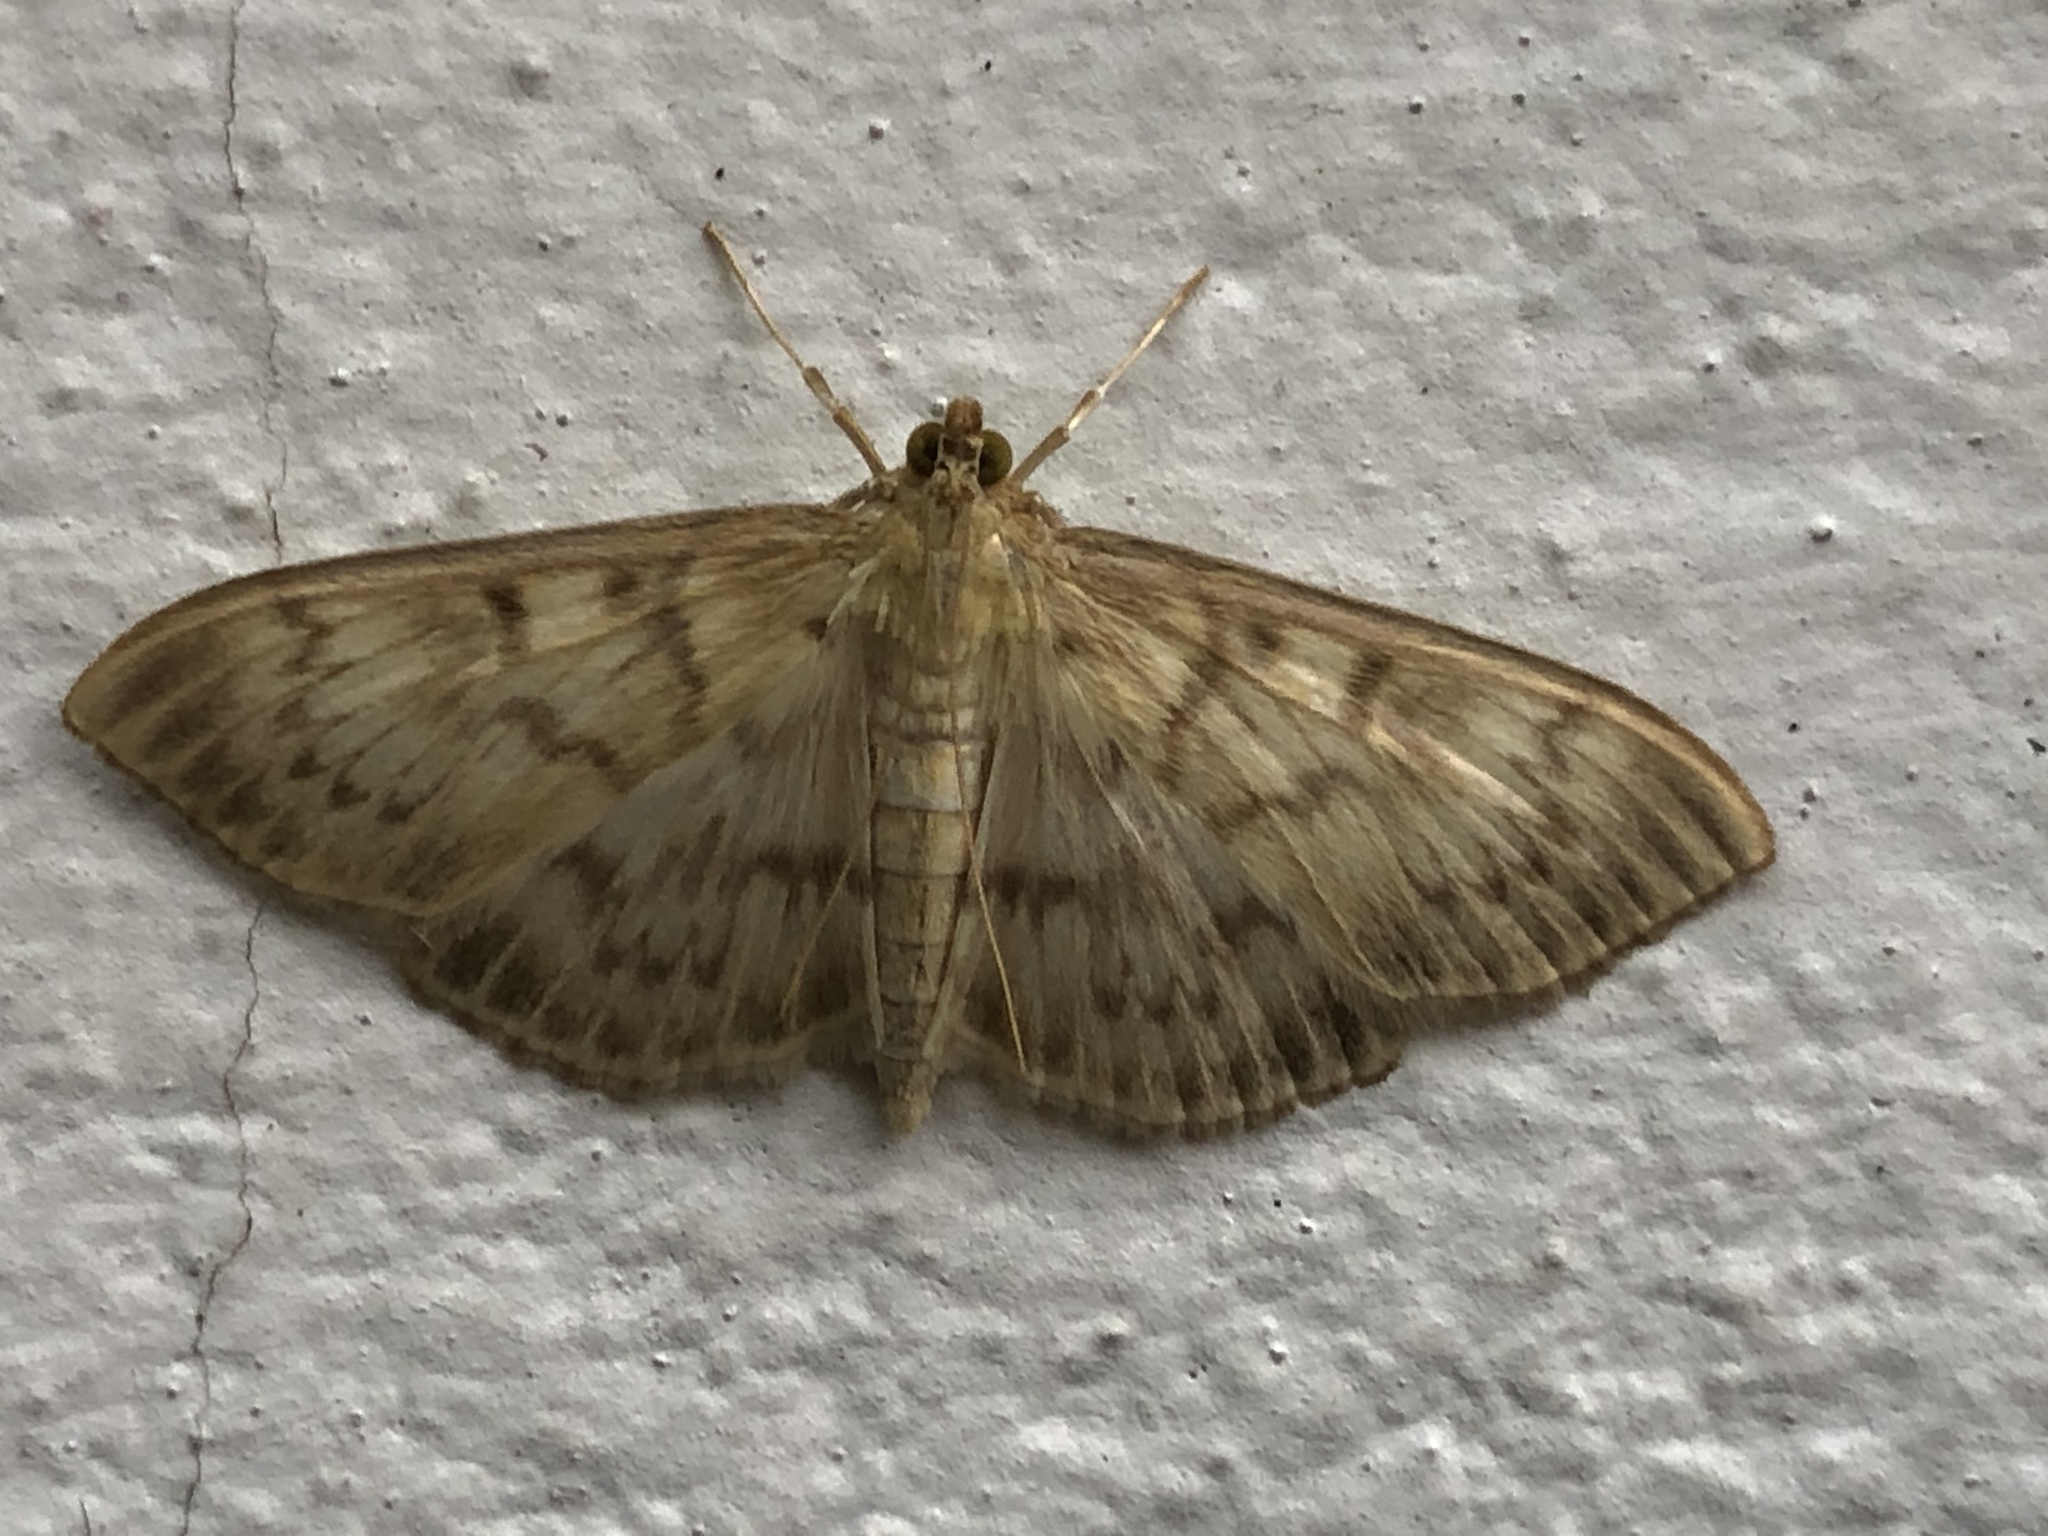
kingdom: Animalia
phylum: Arthropoda
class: Insecta
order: Lepidoptera
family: Crambidae
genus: Patania
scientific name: Patania ruralis
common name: Mother of pearl
